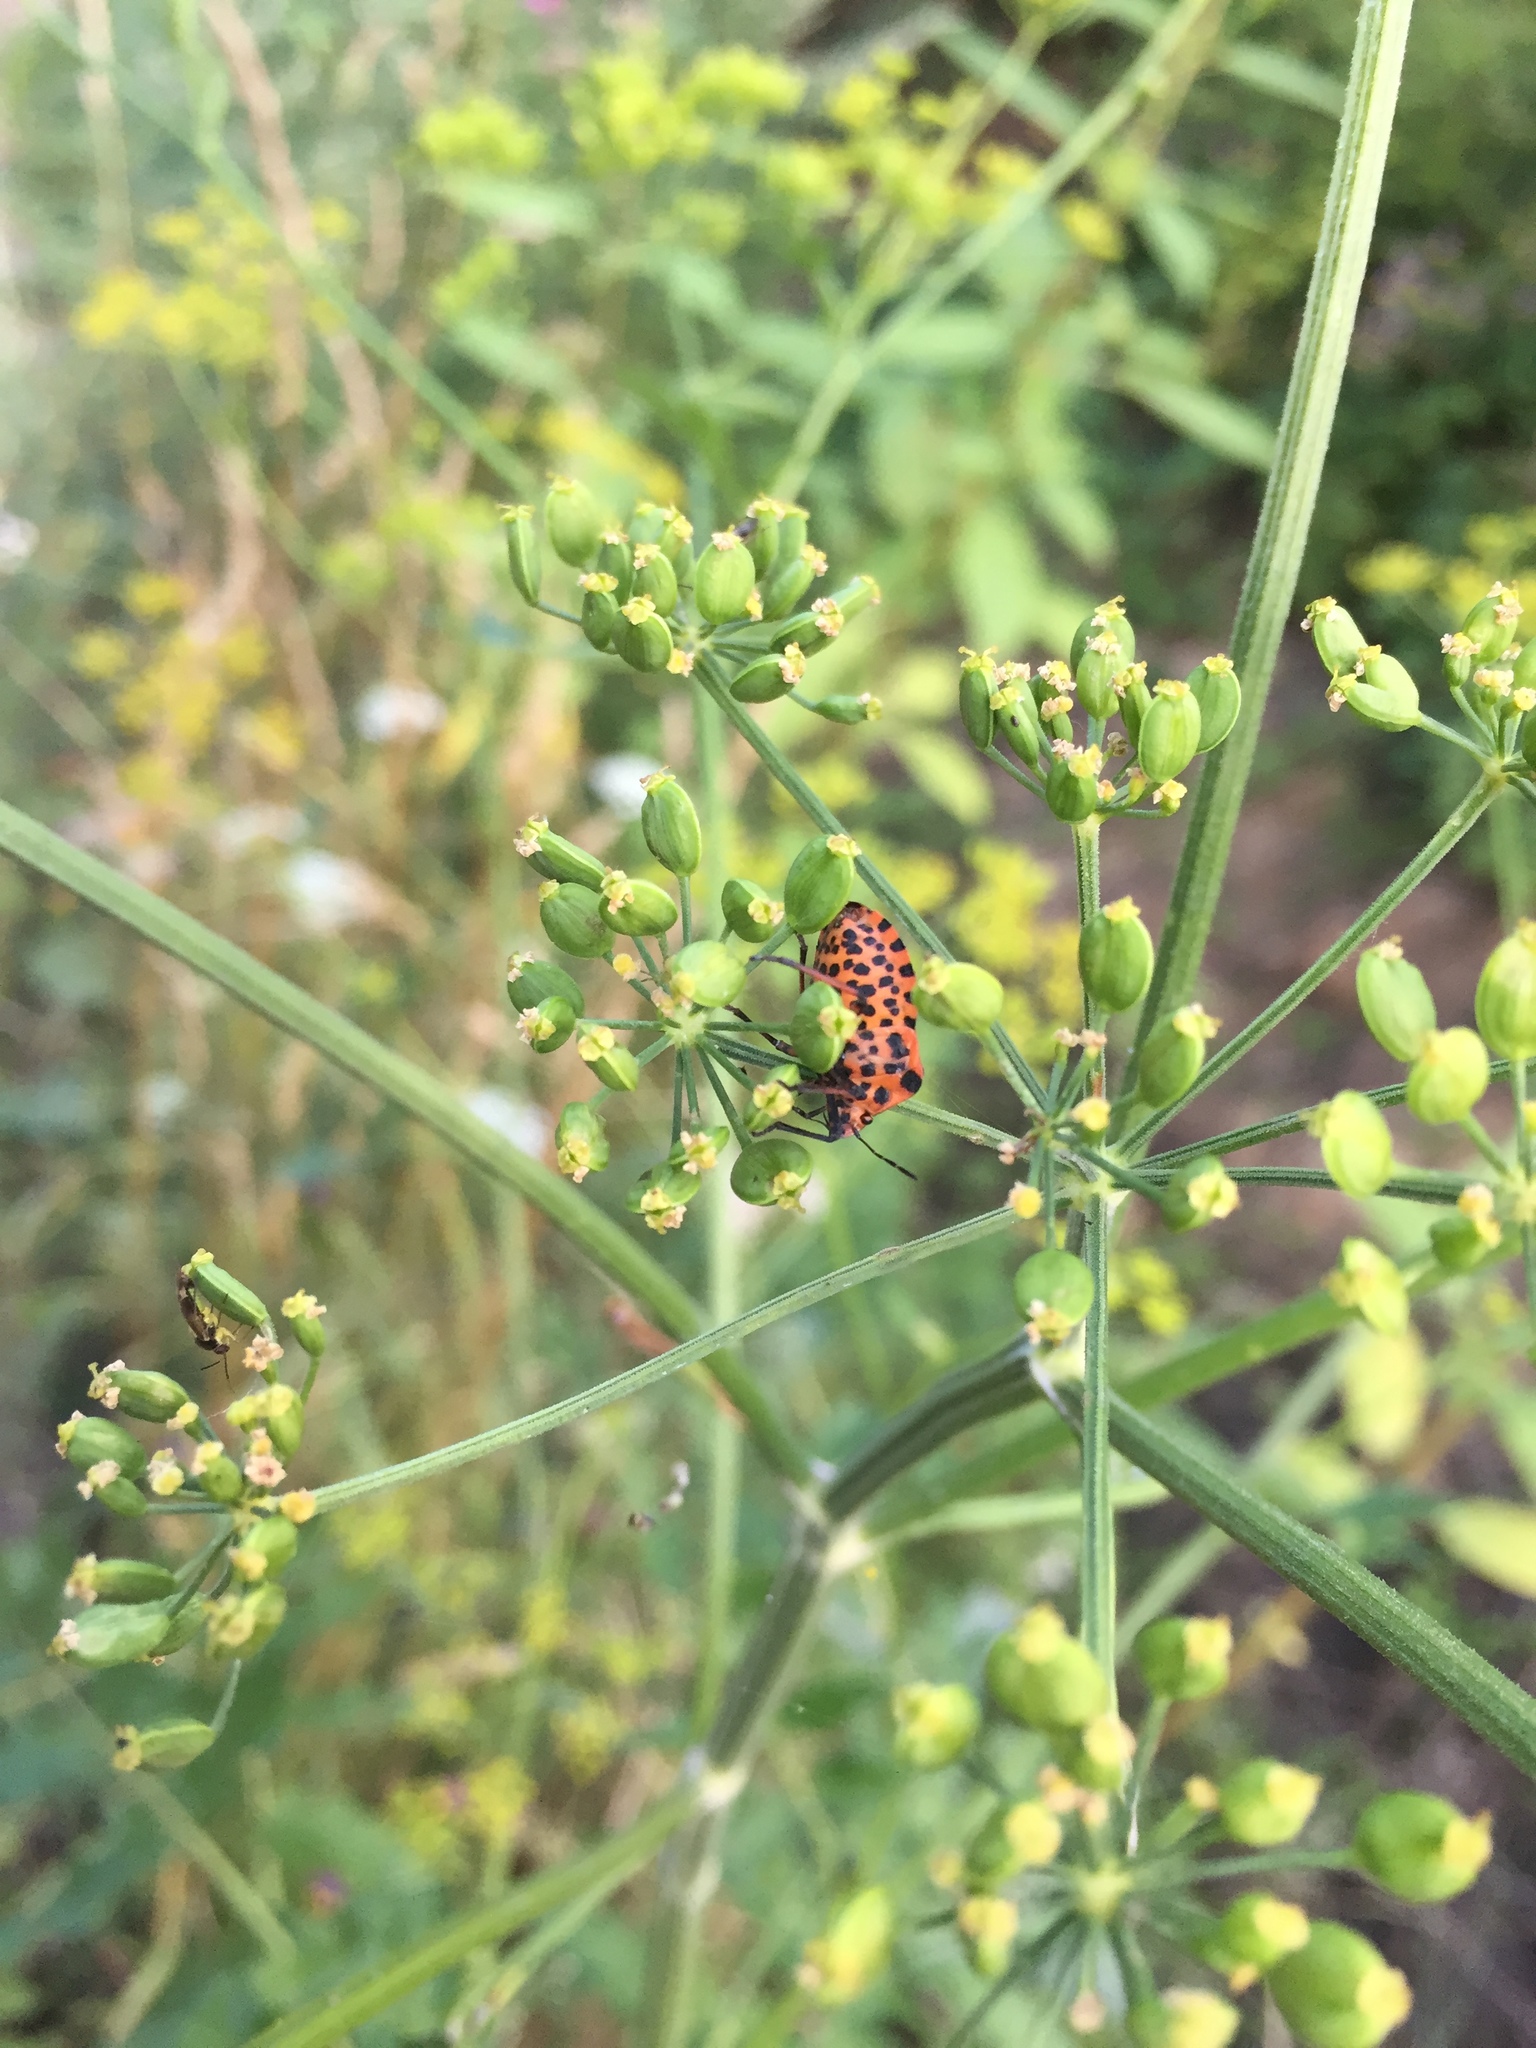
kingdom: Animalia
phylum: Arthropoda
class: Insecta
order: Hemiptera
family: Pentatomidae
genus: Graphosoma
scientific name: Graphosoma italicum
